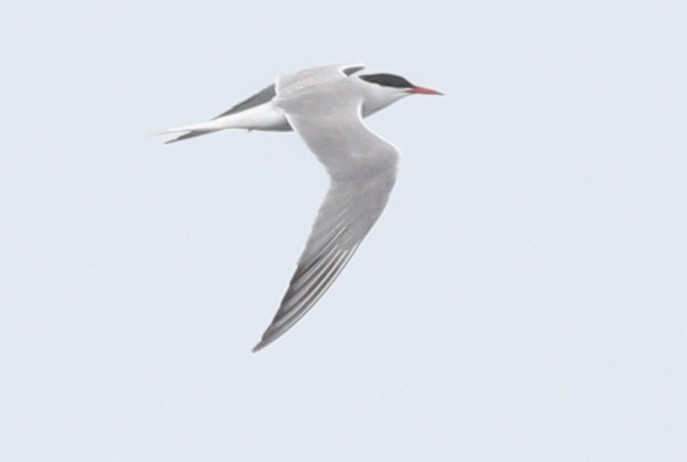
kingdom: Animalia
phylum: Chordata
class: Aves
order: Charadriiformes
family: Laridae
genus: Sterna
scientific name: Sterna hirundo
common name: Common tern
